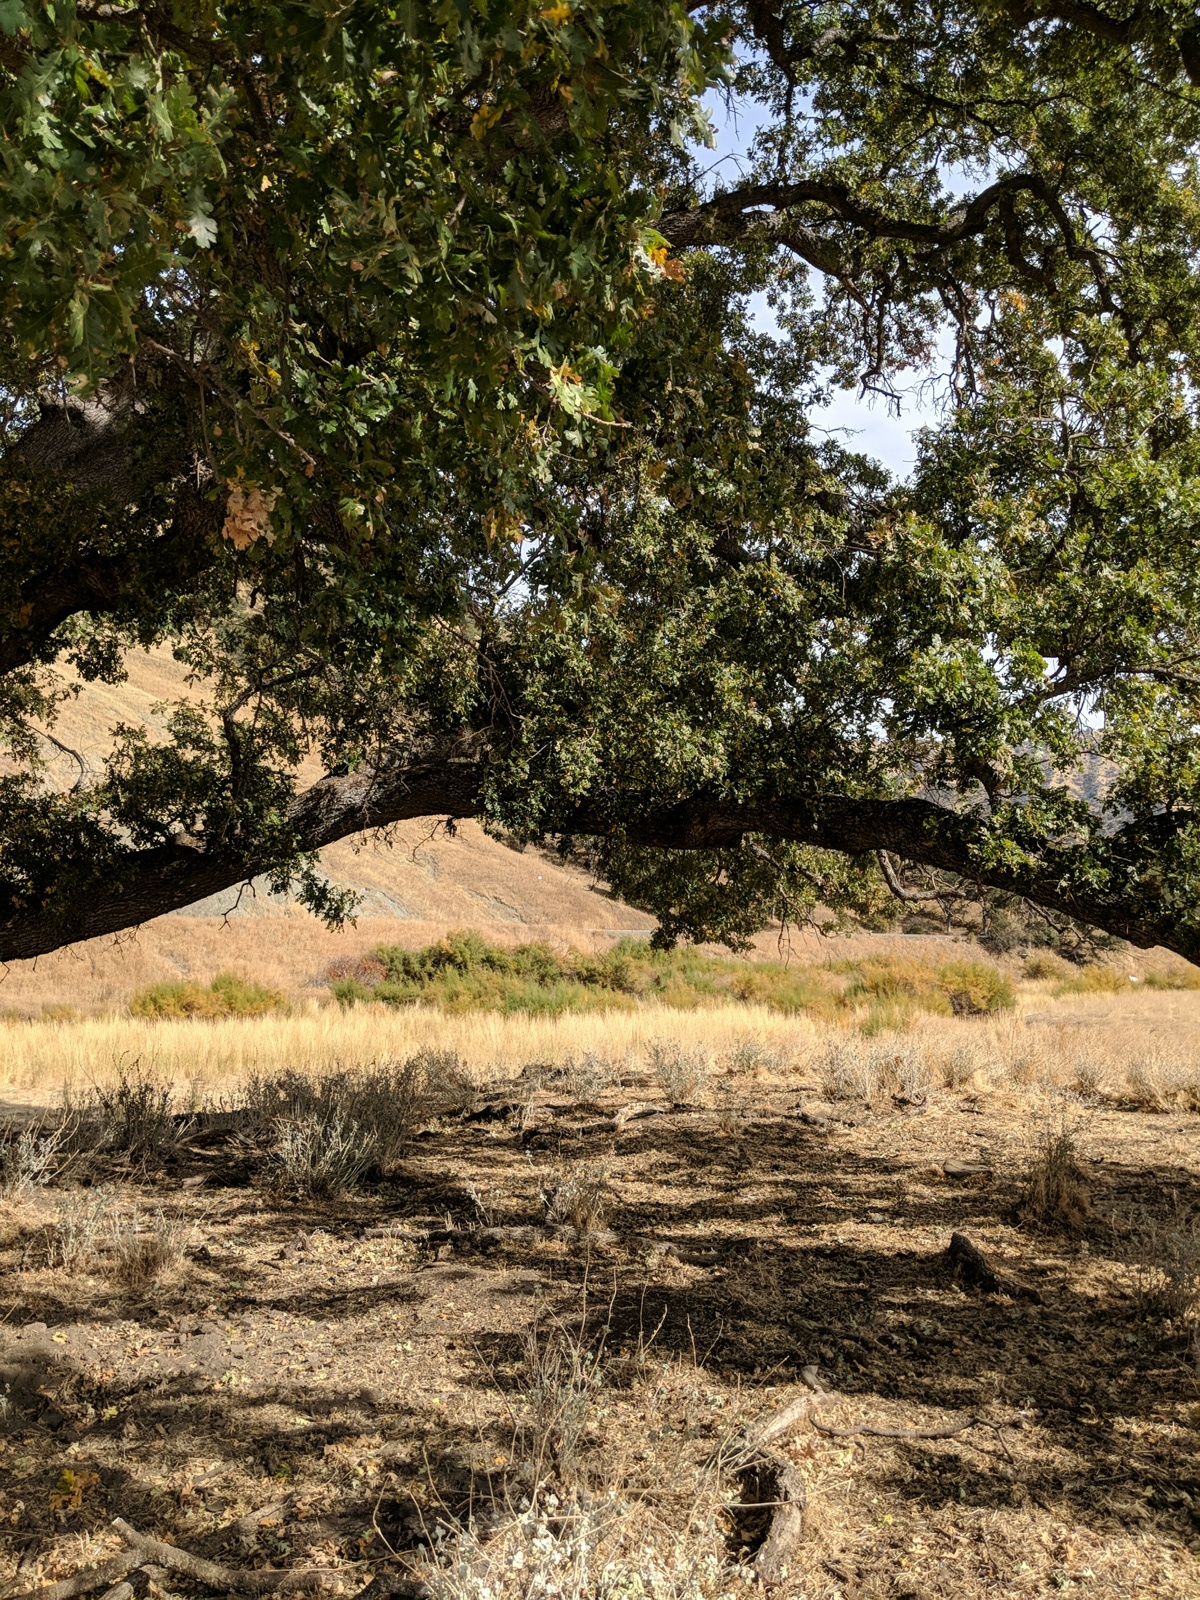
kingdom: Plantae
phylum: Tracheophyta
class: Magnoliopsida
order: Fagales
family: Fagaceae
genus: Quercus
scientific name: Quercus lobata
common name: Valley oak
